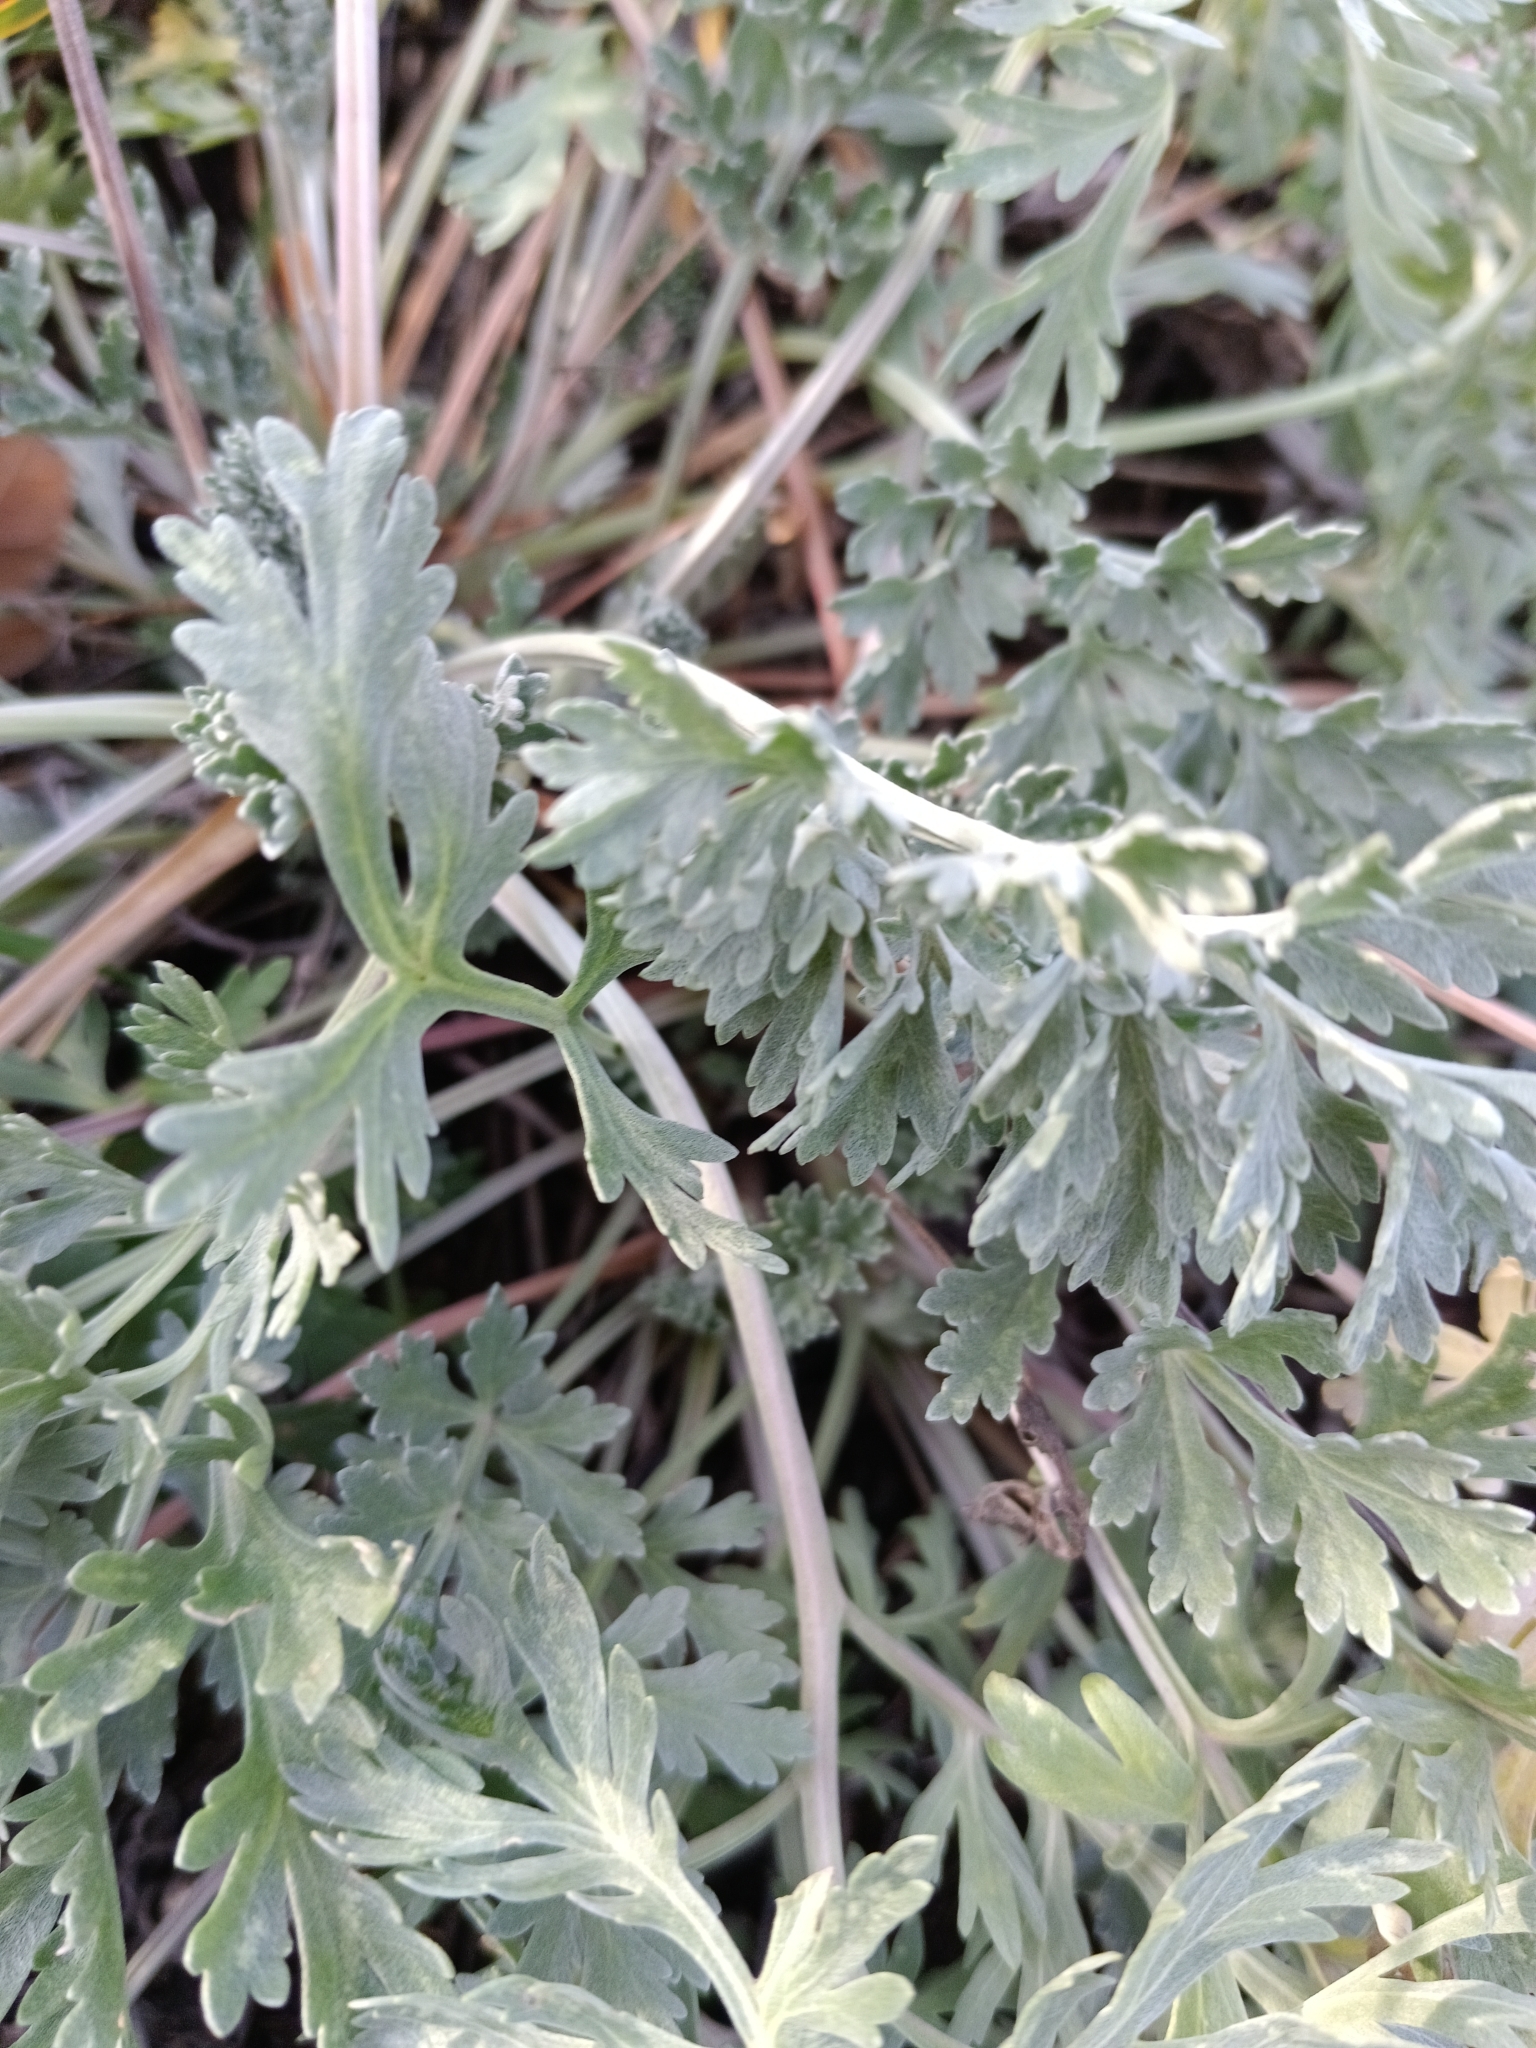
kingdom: Plantae
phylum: Tracheophyta
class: Magnoliopsida
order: Asterales
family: Asteraceae
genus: Artemisia
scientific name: Artemisia absinthium
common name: Wormwood
